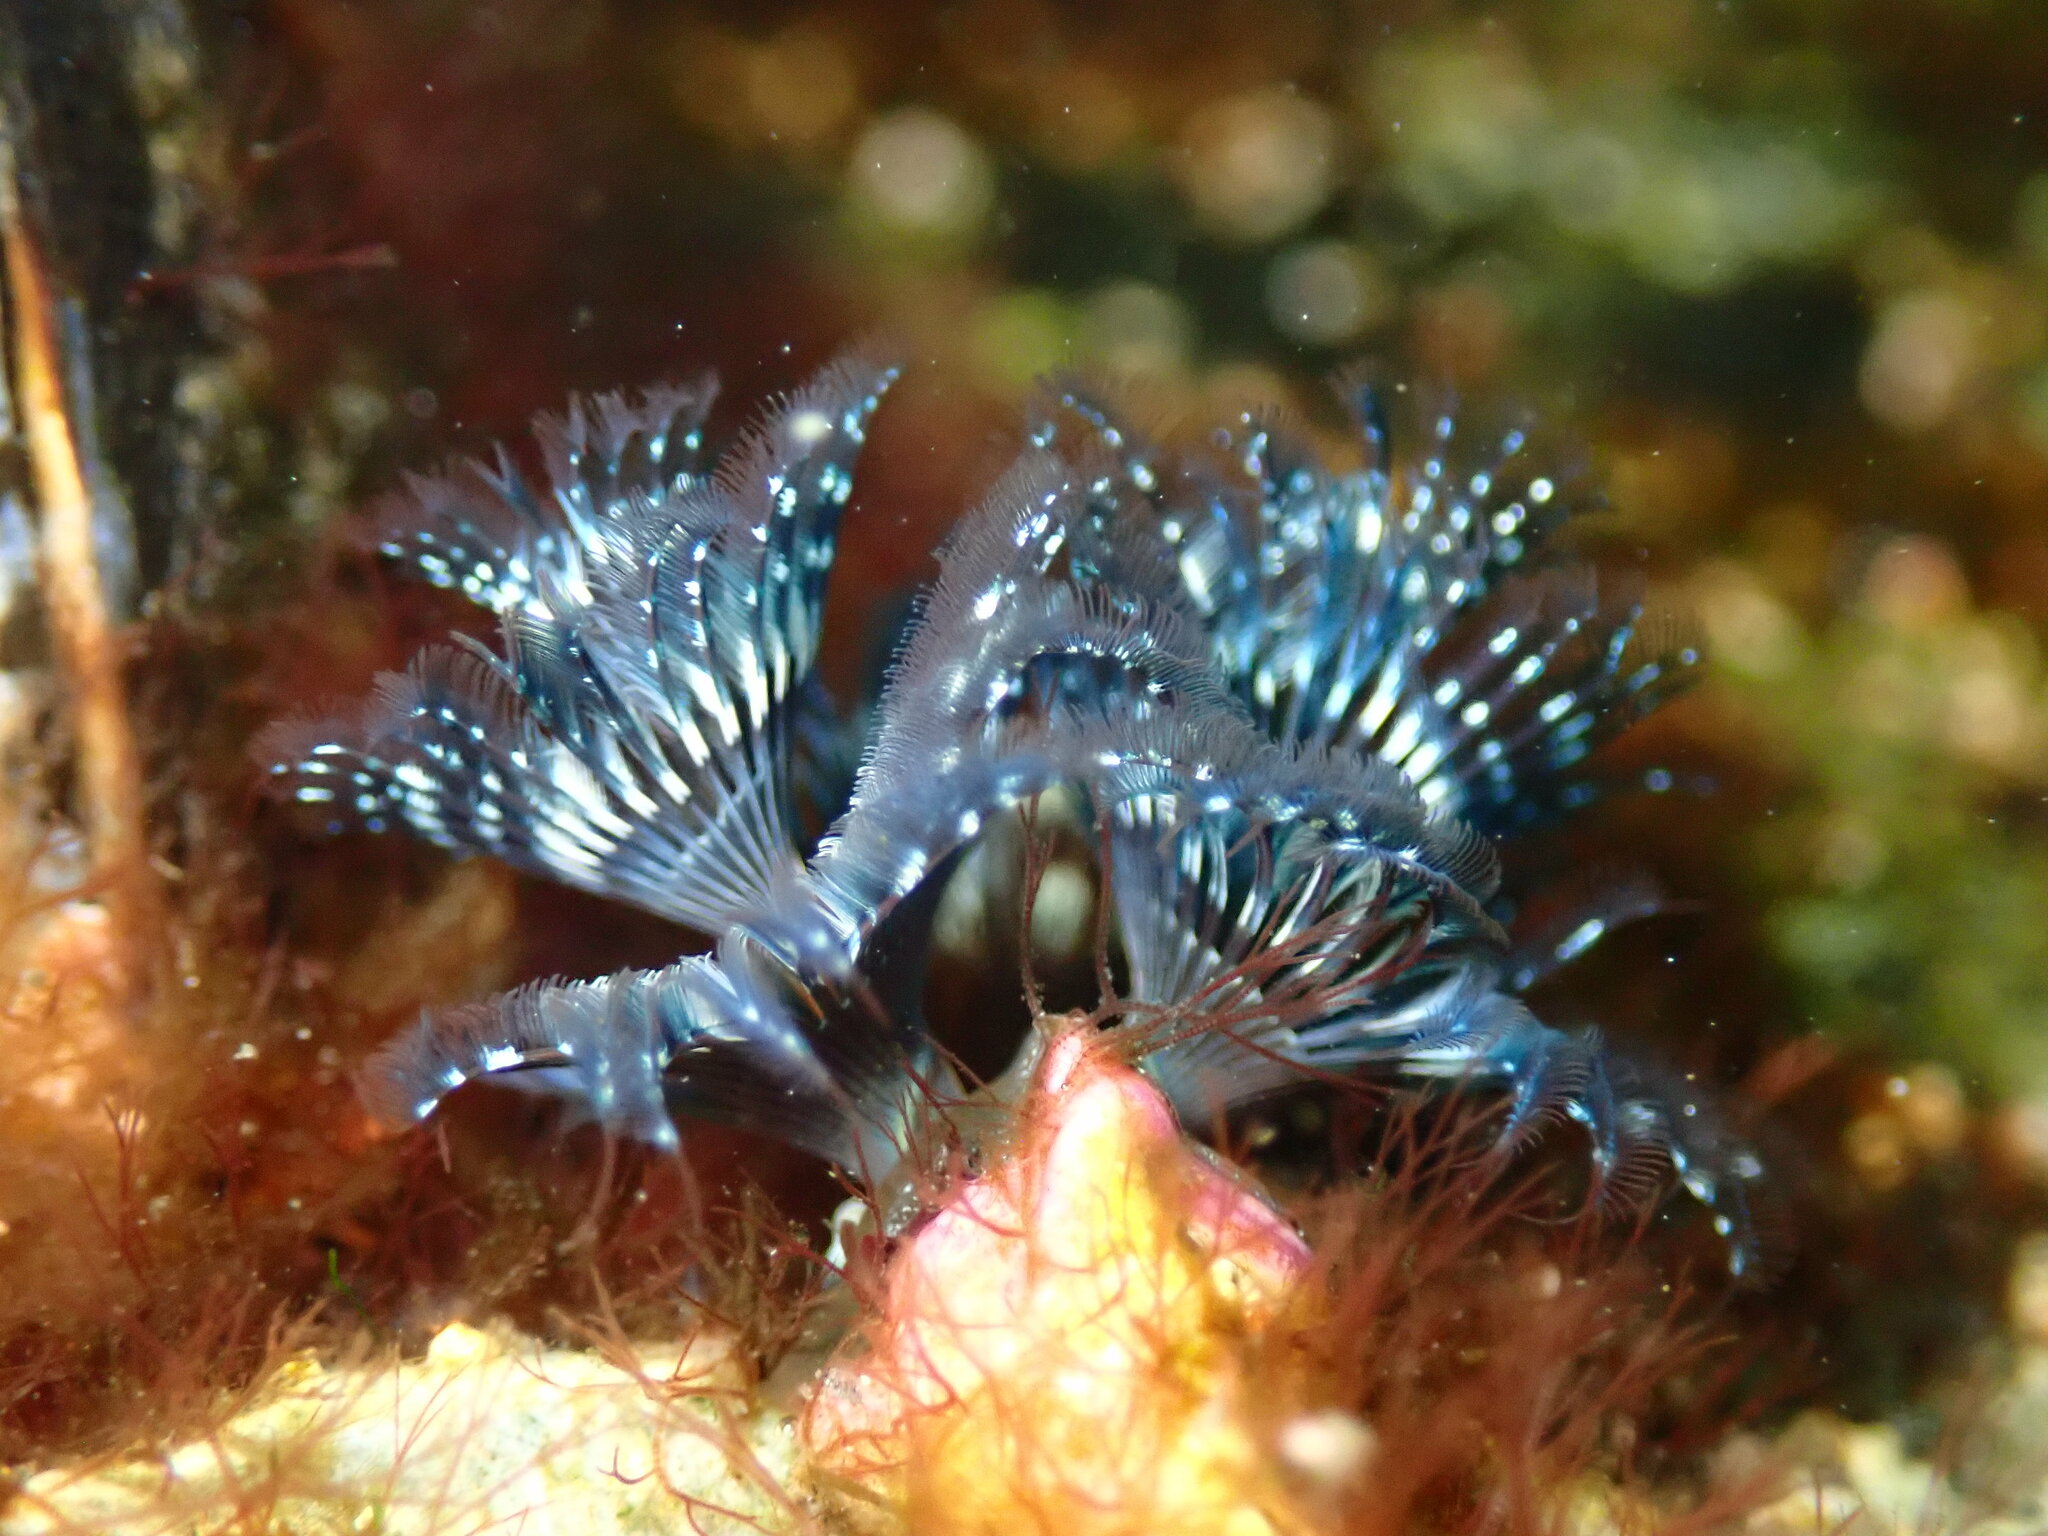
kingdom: Animalia
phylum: Annelida
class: Polychaeta
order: Sabellida
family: Serpulidae
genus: Spirobranchus
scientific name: Spirobranchus spinosus
